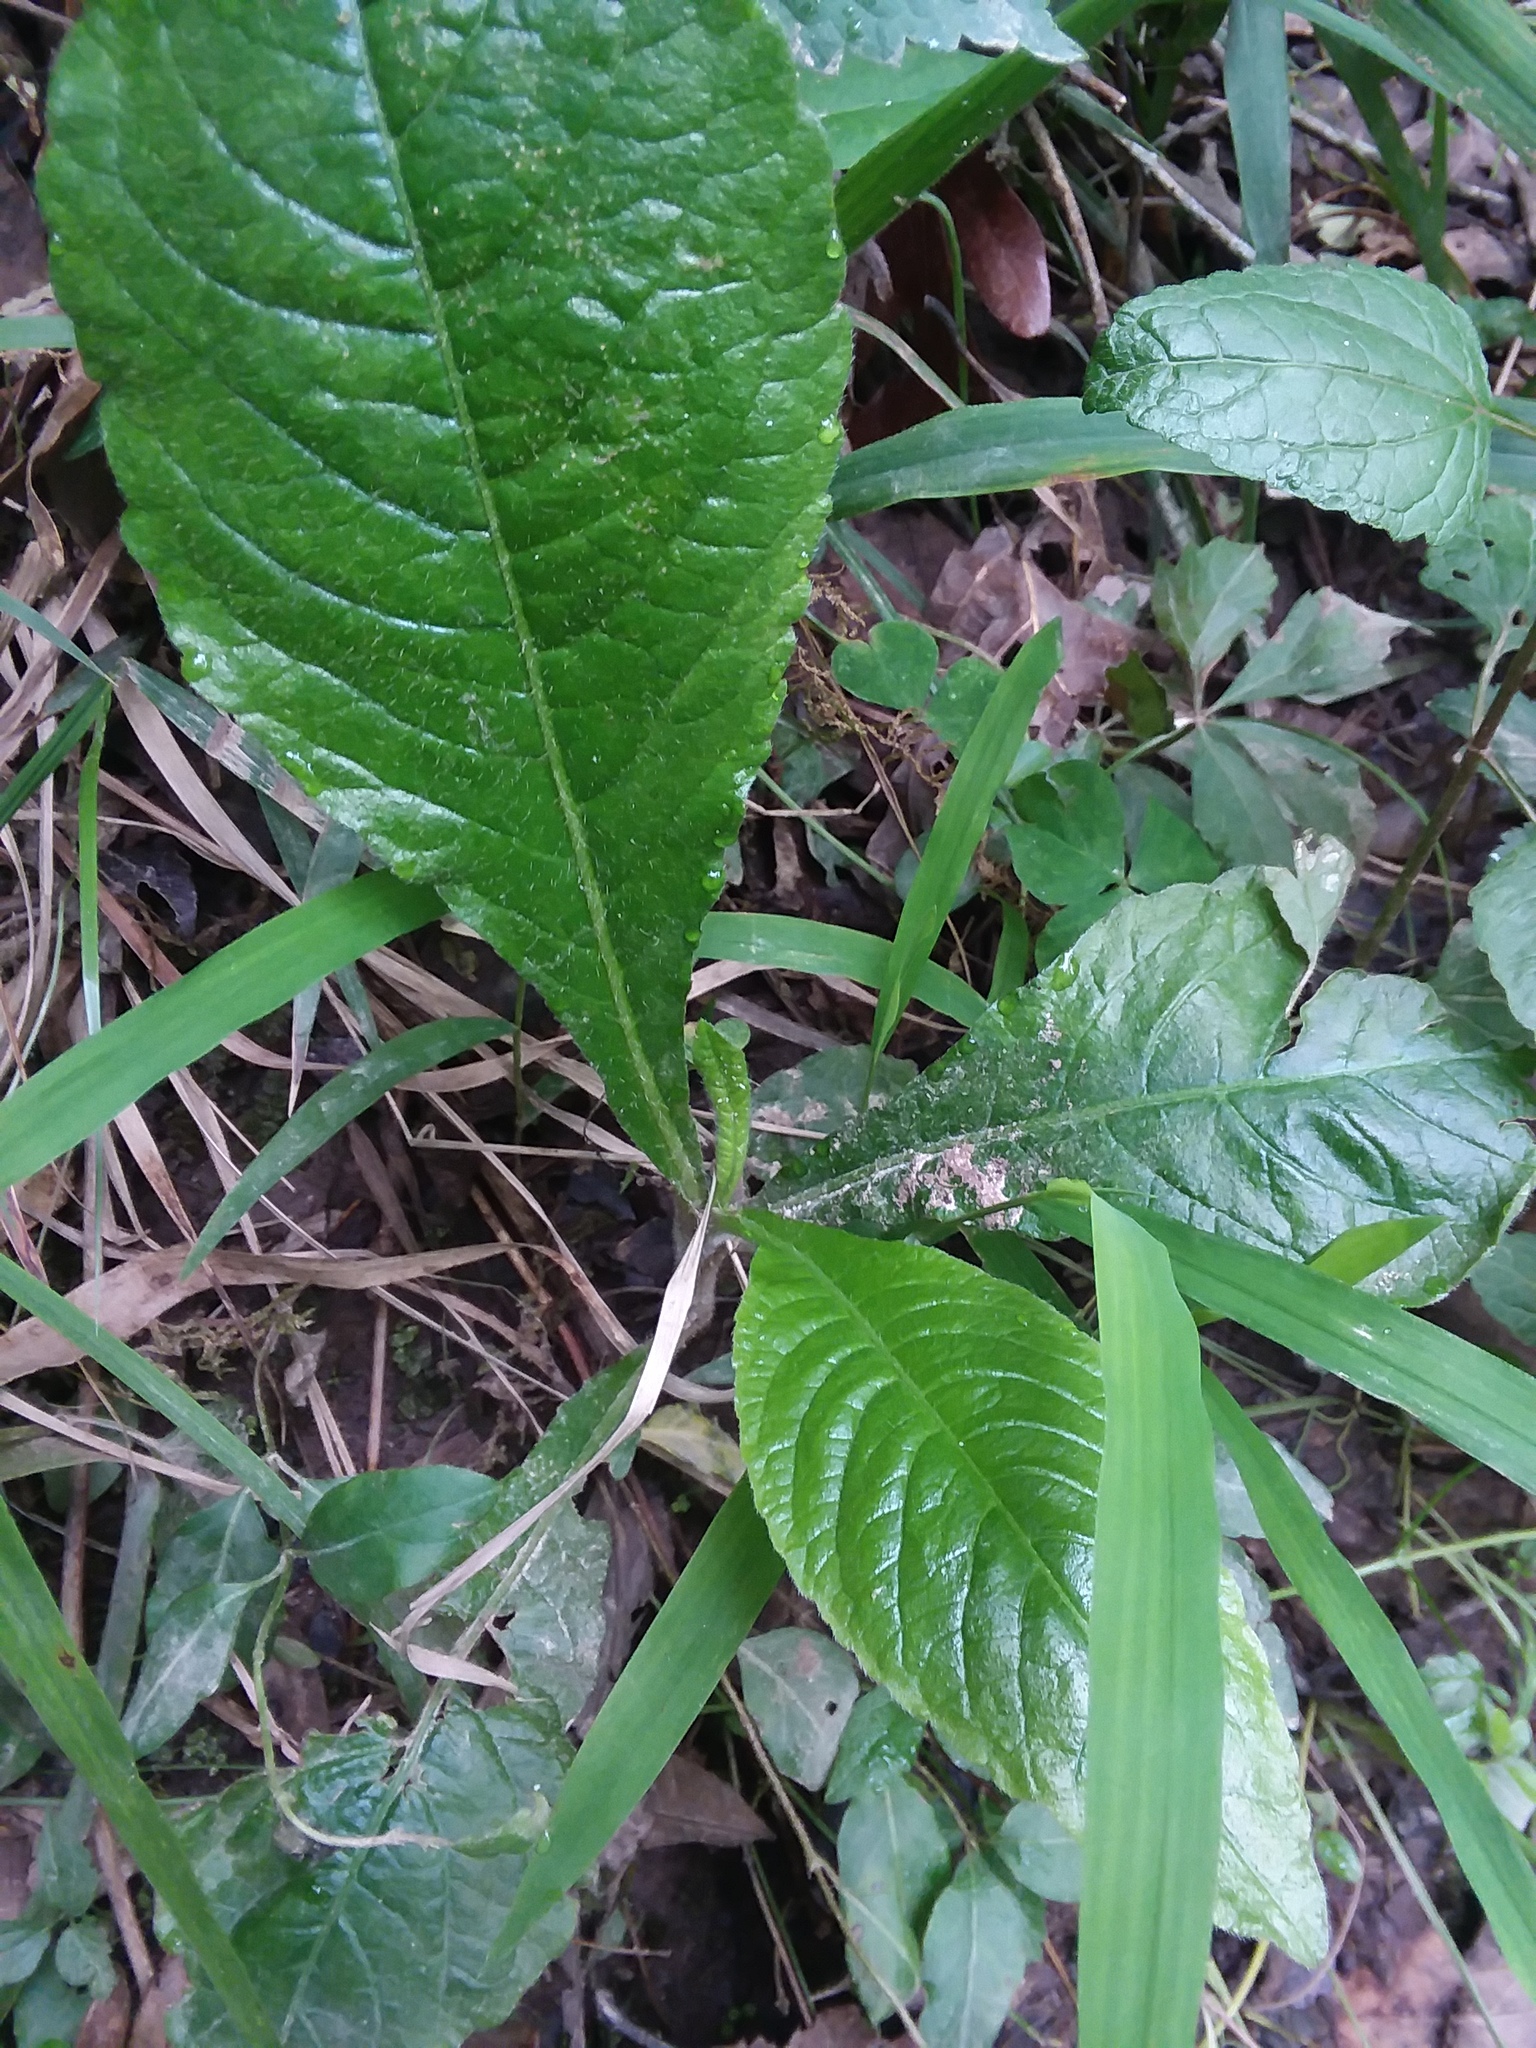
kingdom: Plantae
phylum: Tracheophyta
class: Magnoliopsida
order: Asterales
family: Asteraceae
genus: Elephantopus
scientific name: Elephantopus carolinianus
